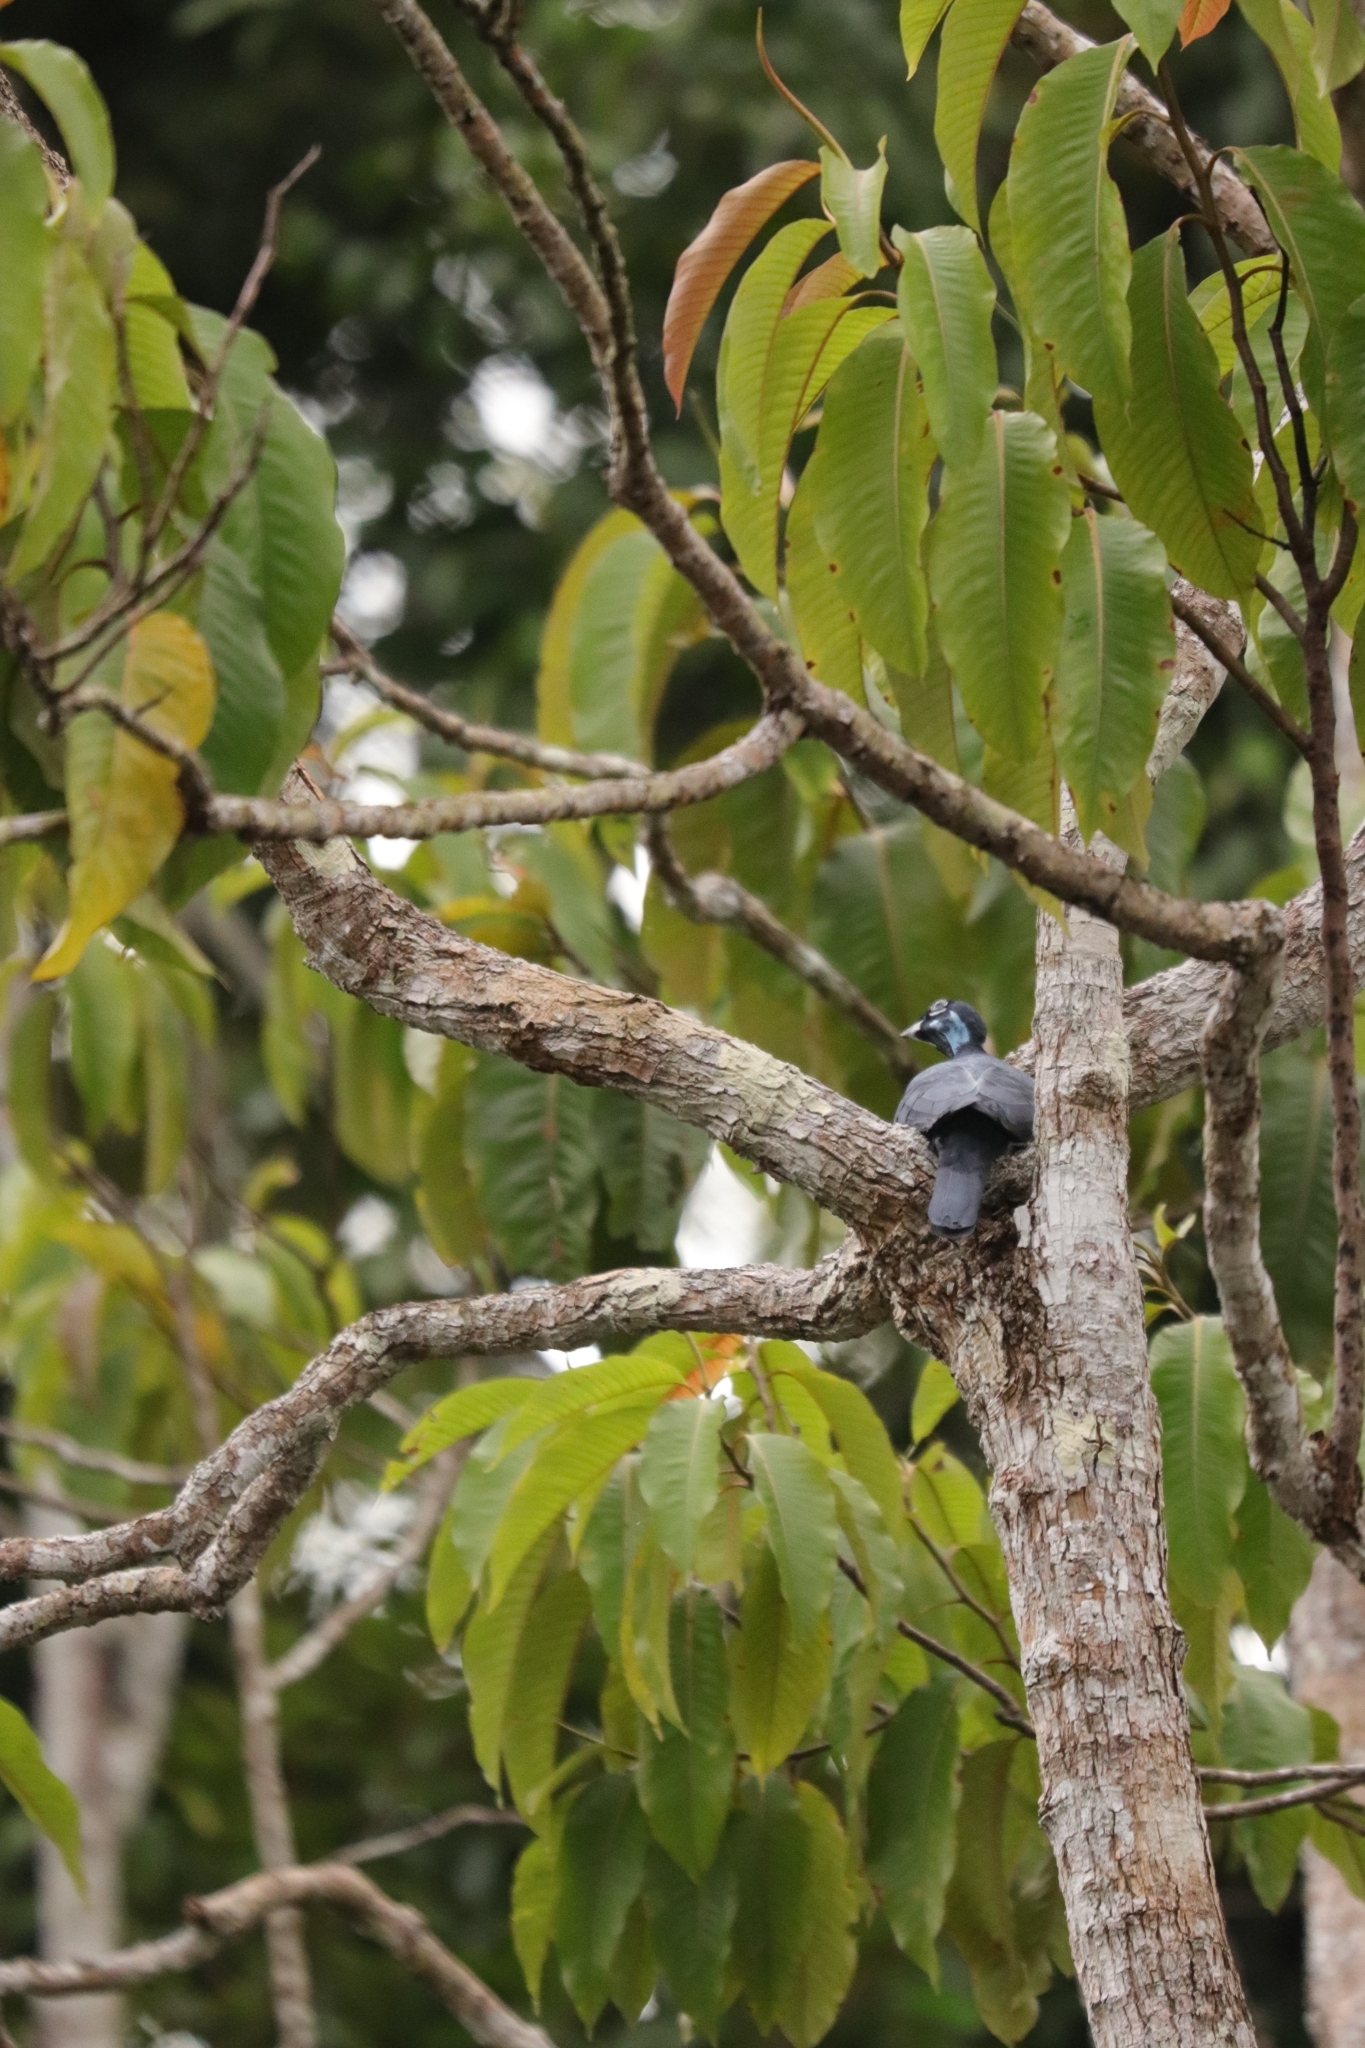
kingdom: Animalia
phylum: Chordata
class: Aves
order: Passeriformes
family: Cotingidae
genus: Gymnoderus
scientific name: Gymnoderus foetidus
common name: Bare-necked fruitcrow
